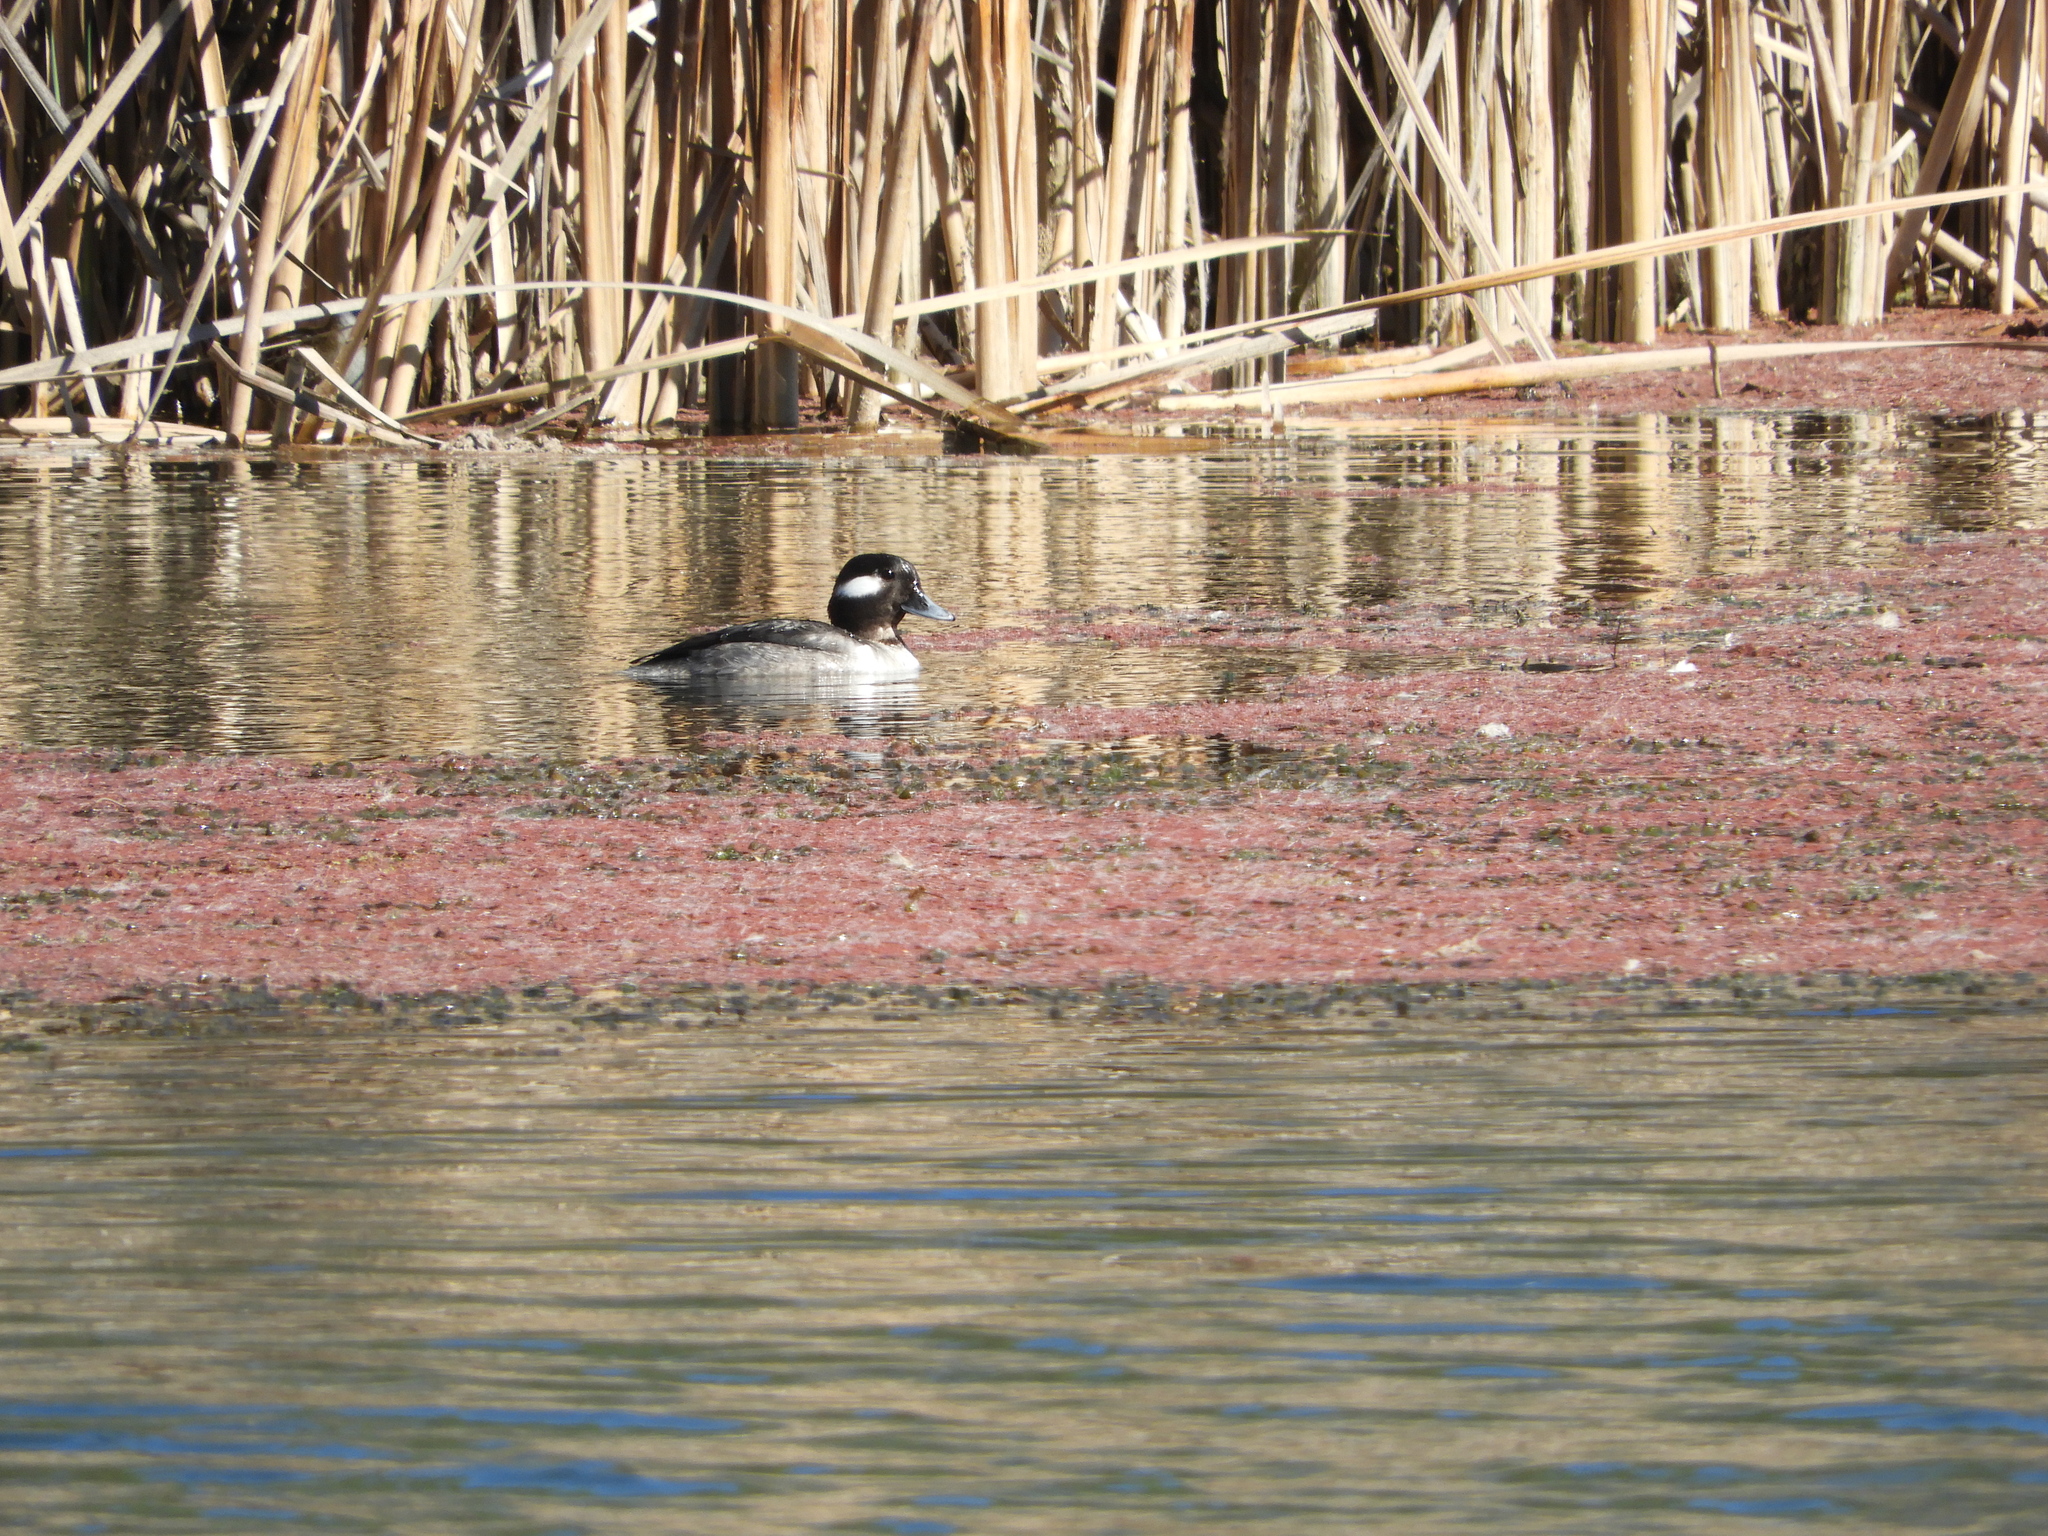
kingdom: Animalia
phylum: Chordata
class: Aves
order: Anseriformes
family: Anatidae
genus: Bucephala
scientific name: Bucephala albeola
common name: Bufflehead
